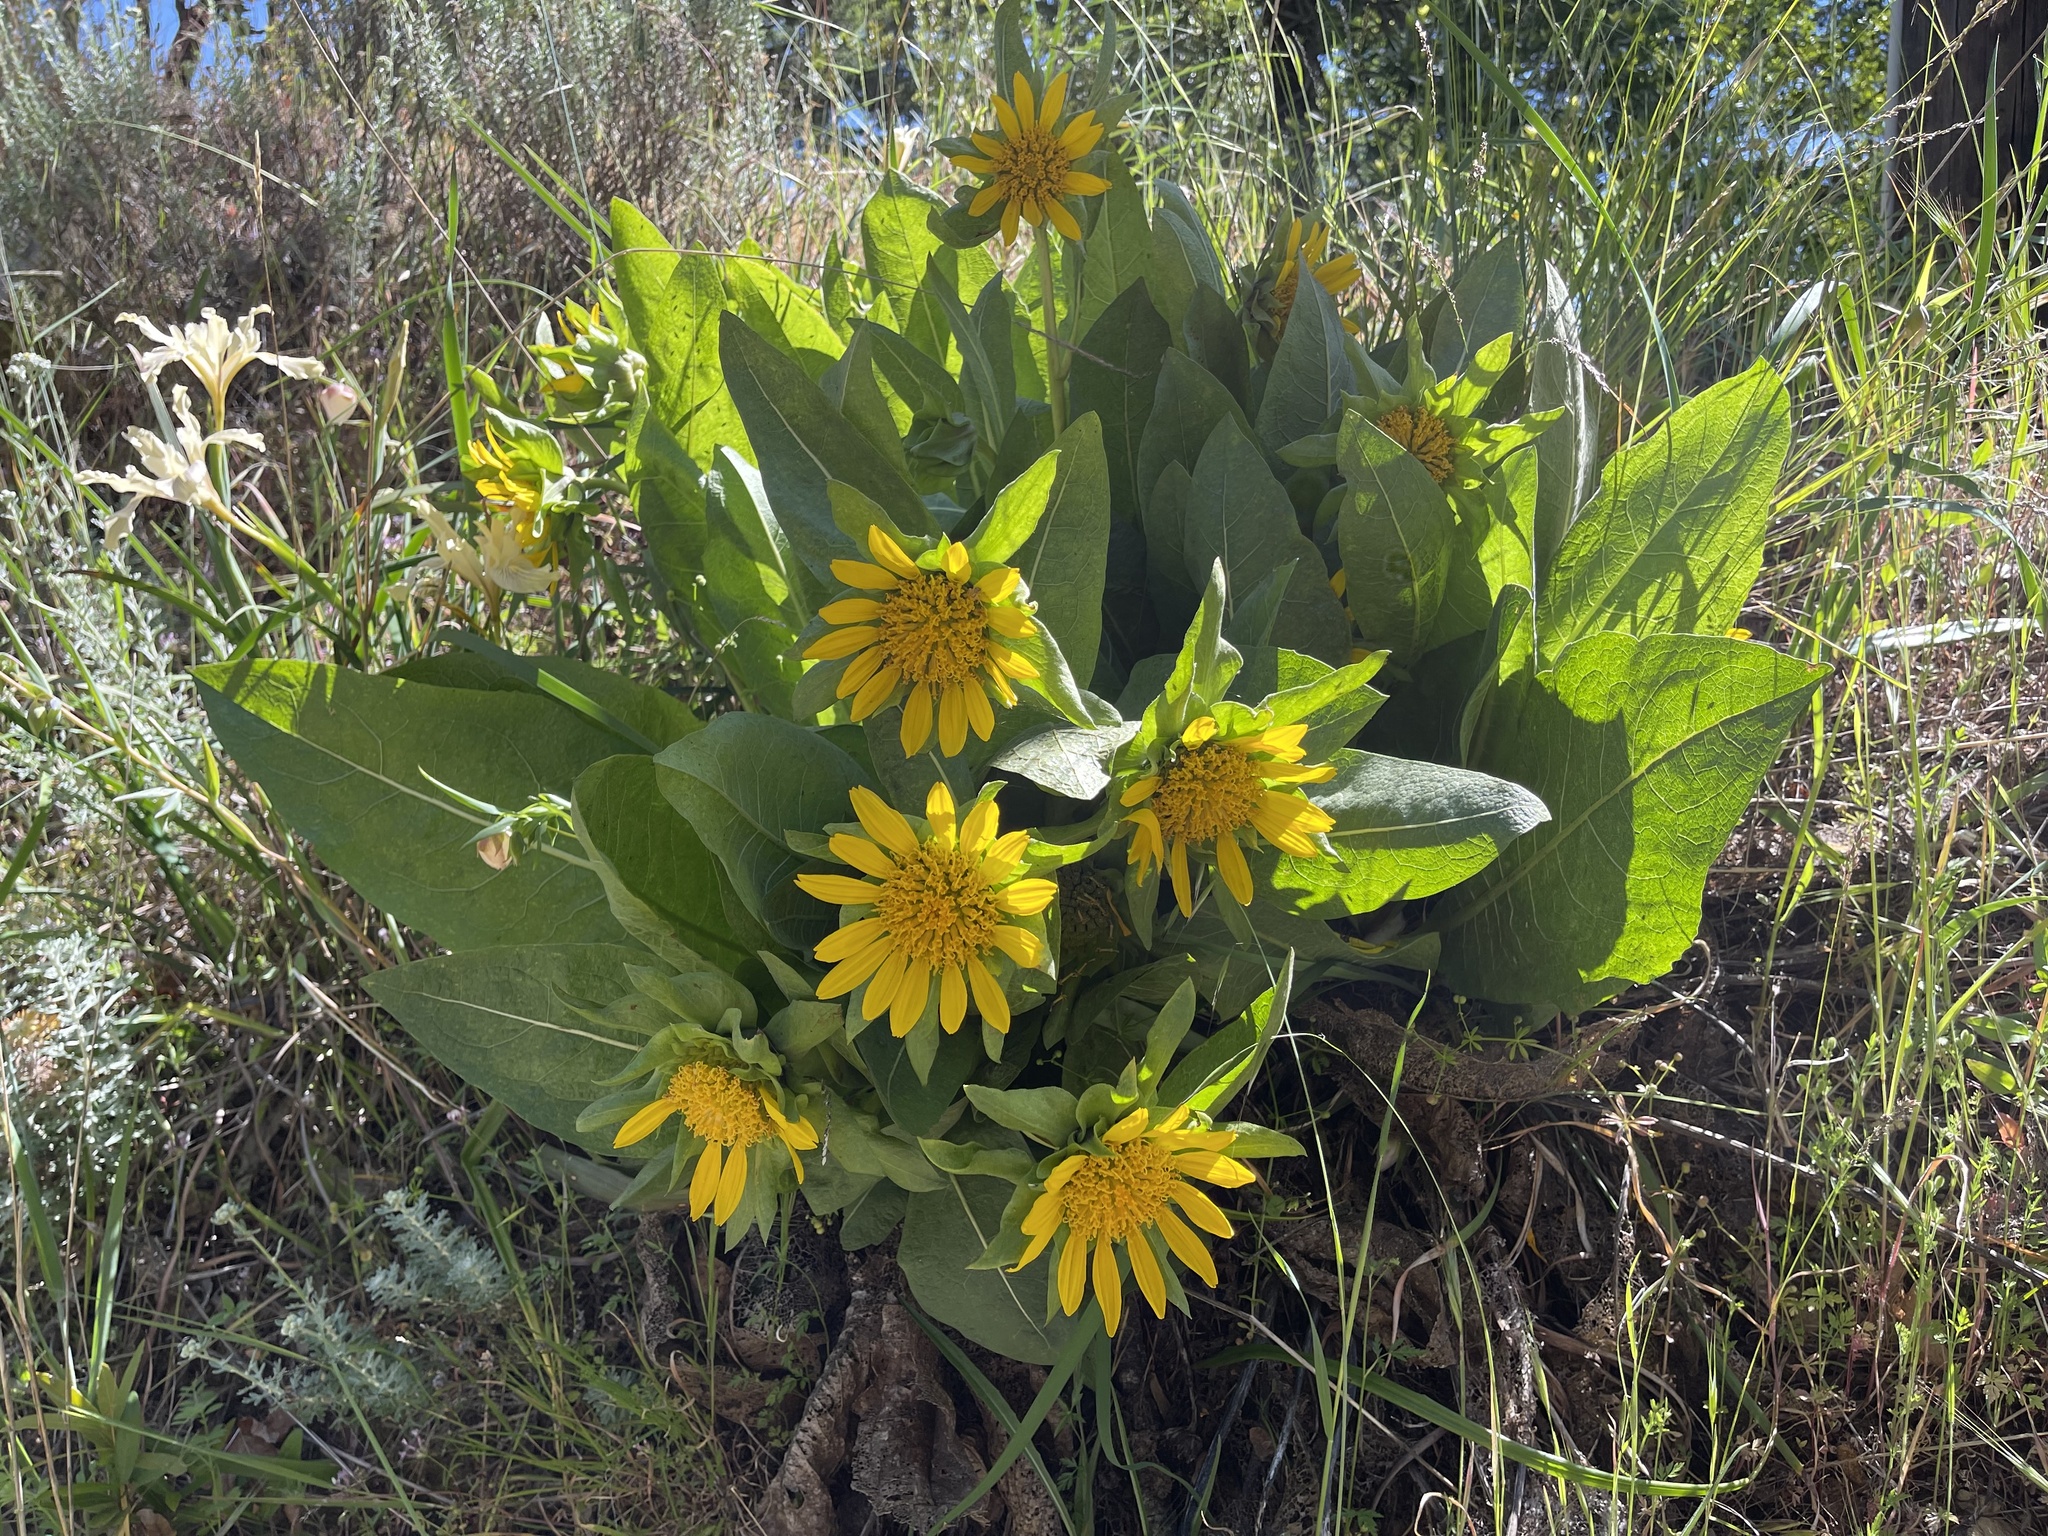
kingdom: Plantae
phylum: Tracheophyta
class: Magnoliopsida
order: Asterales
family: Asteraceae
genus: Wyethia
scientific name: Wyethia glabra
